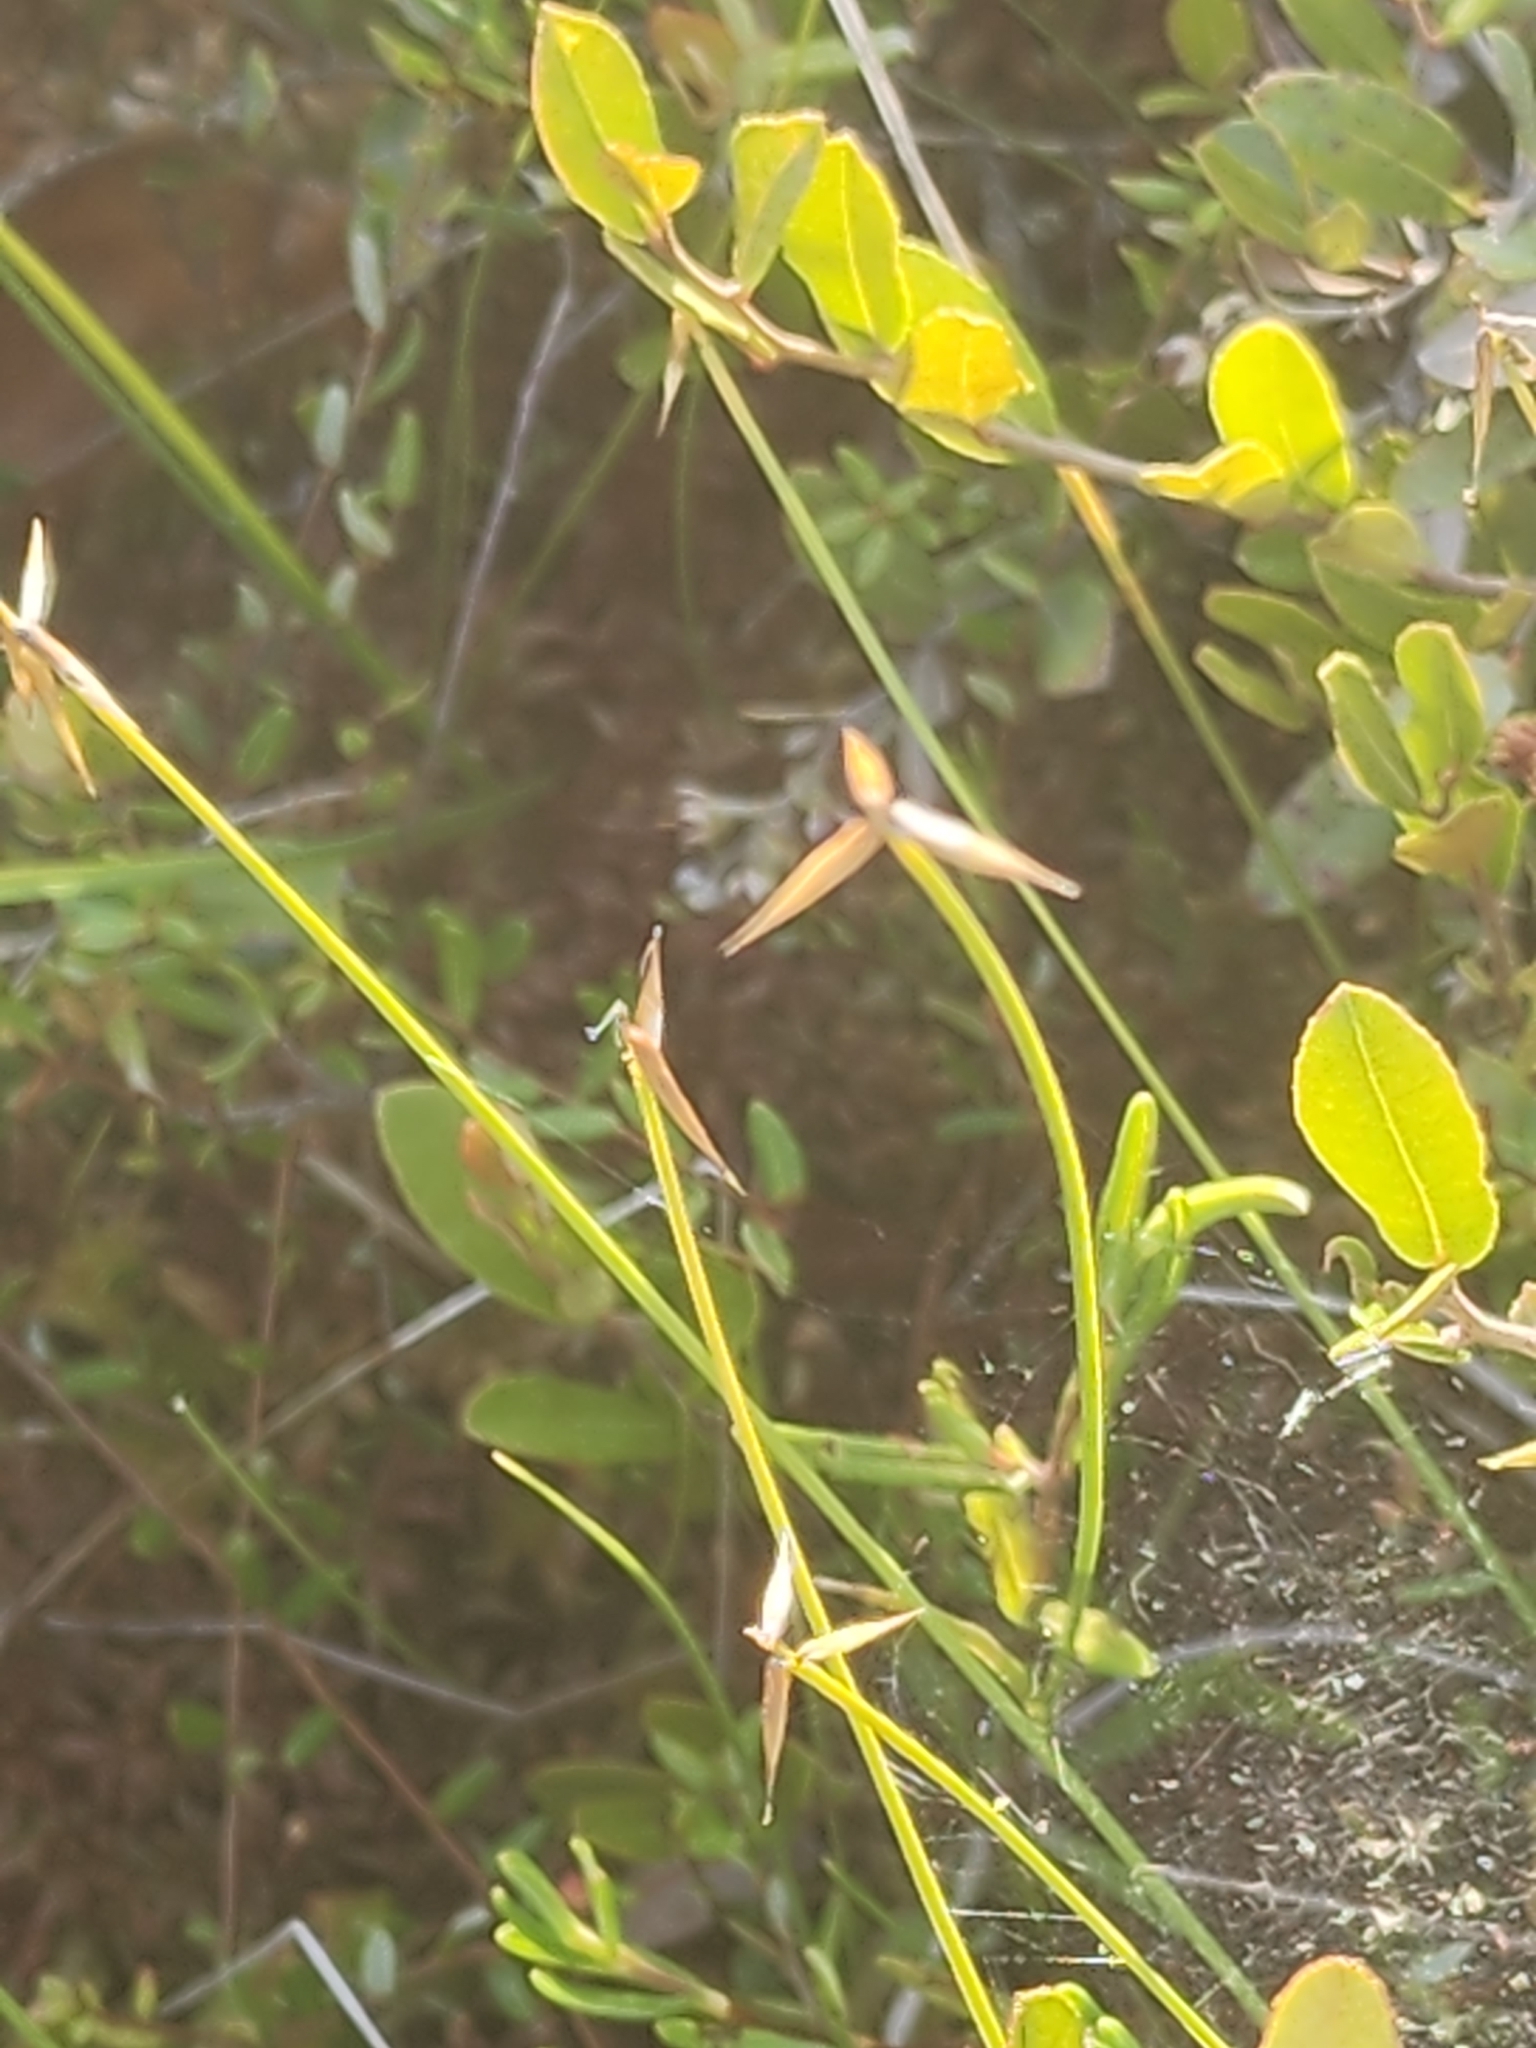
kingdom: Plantae
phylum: Tracheophyta
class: Liliopsida
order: Poales
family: Cyperaceae
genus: Carex
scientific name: Carex pauciflora
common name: Few-flowered sedge
